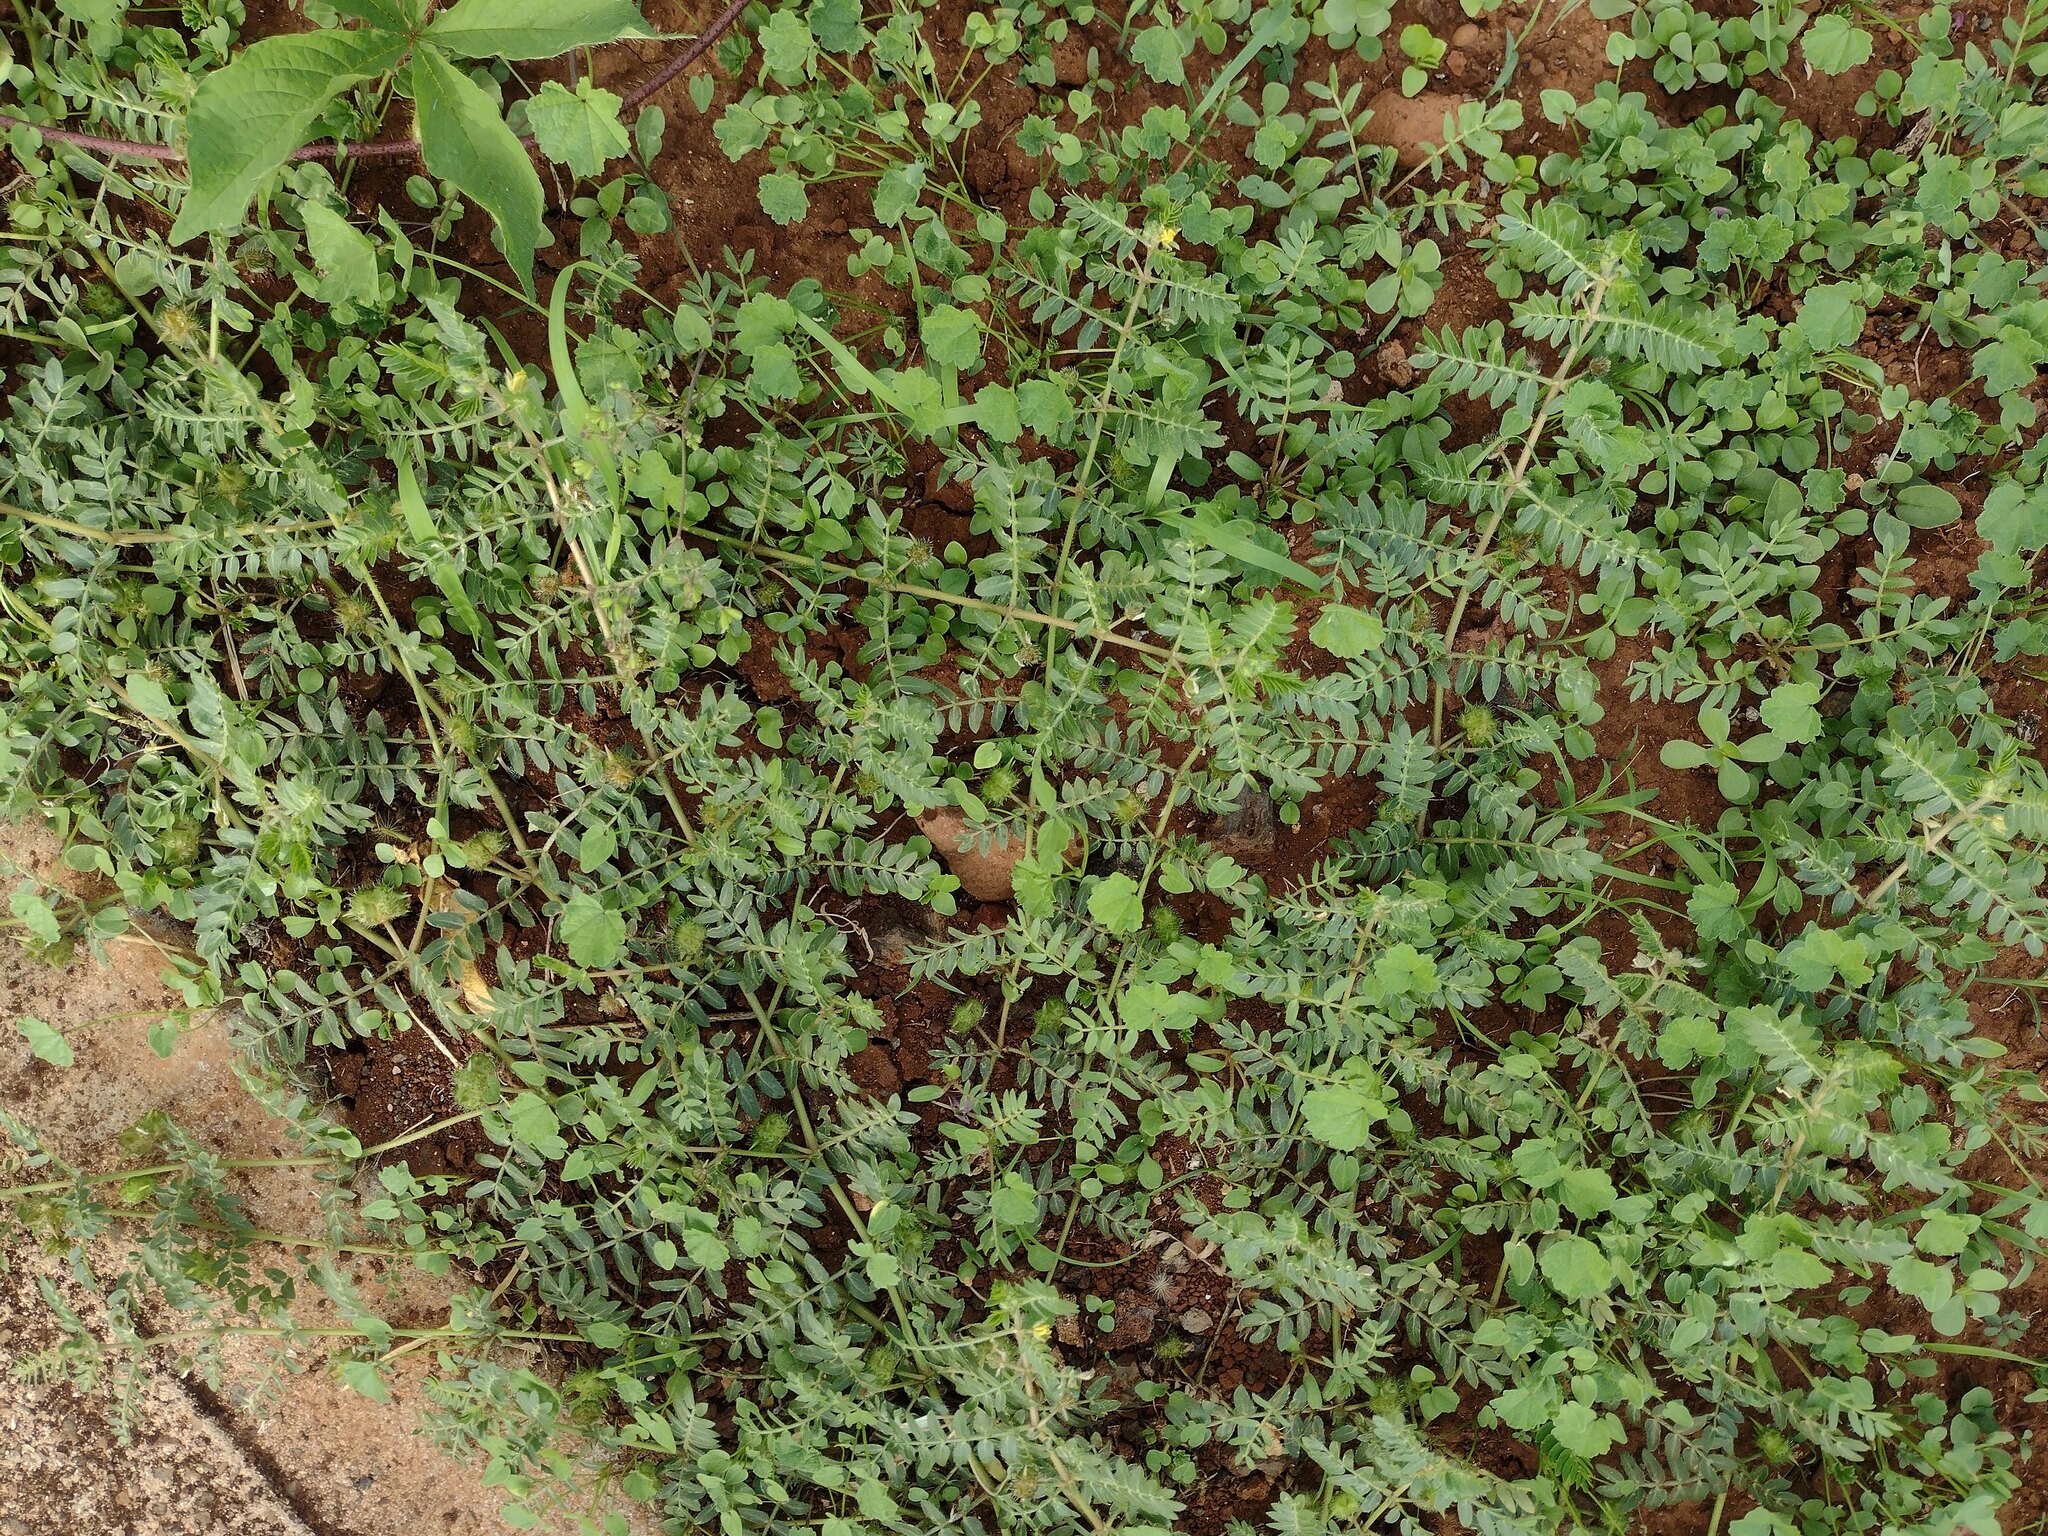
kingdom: Plantae
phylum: Tracheophyta
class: Magnoliopsida
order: Zygophyllales
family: Zygophyllaceae
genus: Tribulus
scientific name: Tribulus terrestris
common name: Puncturevine
